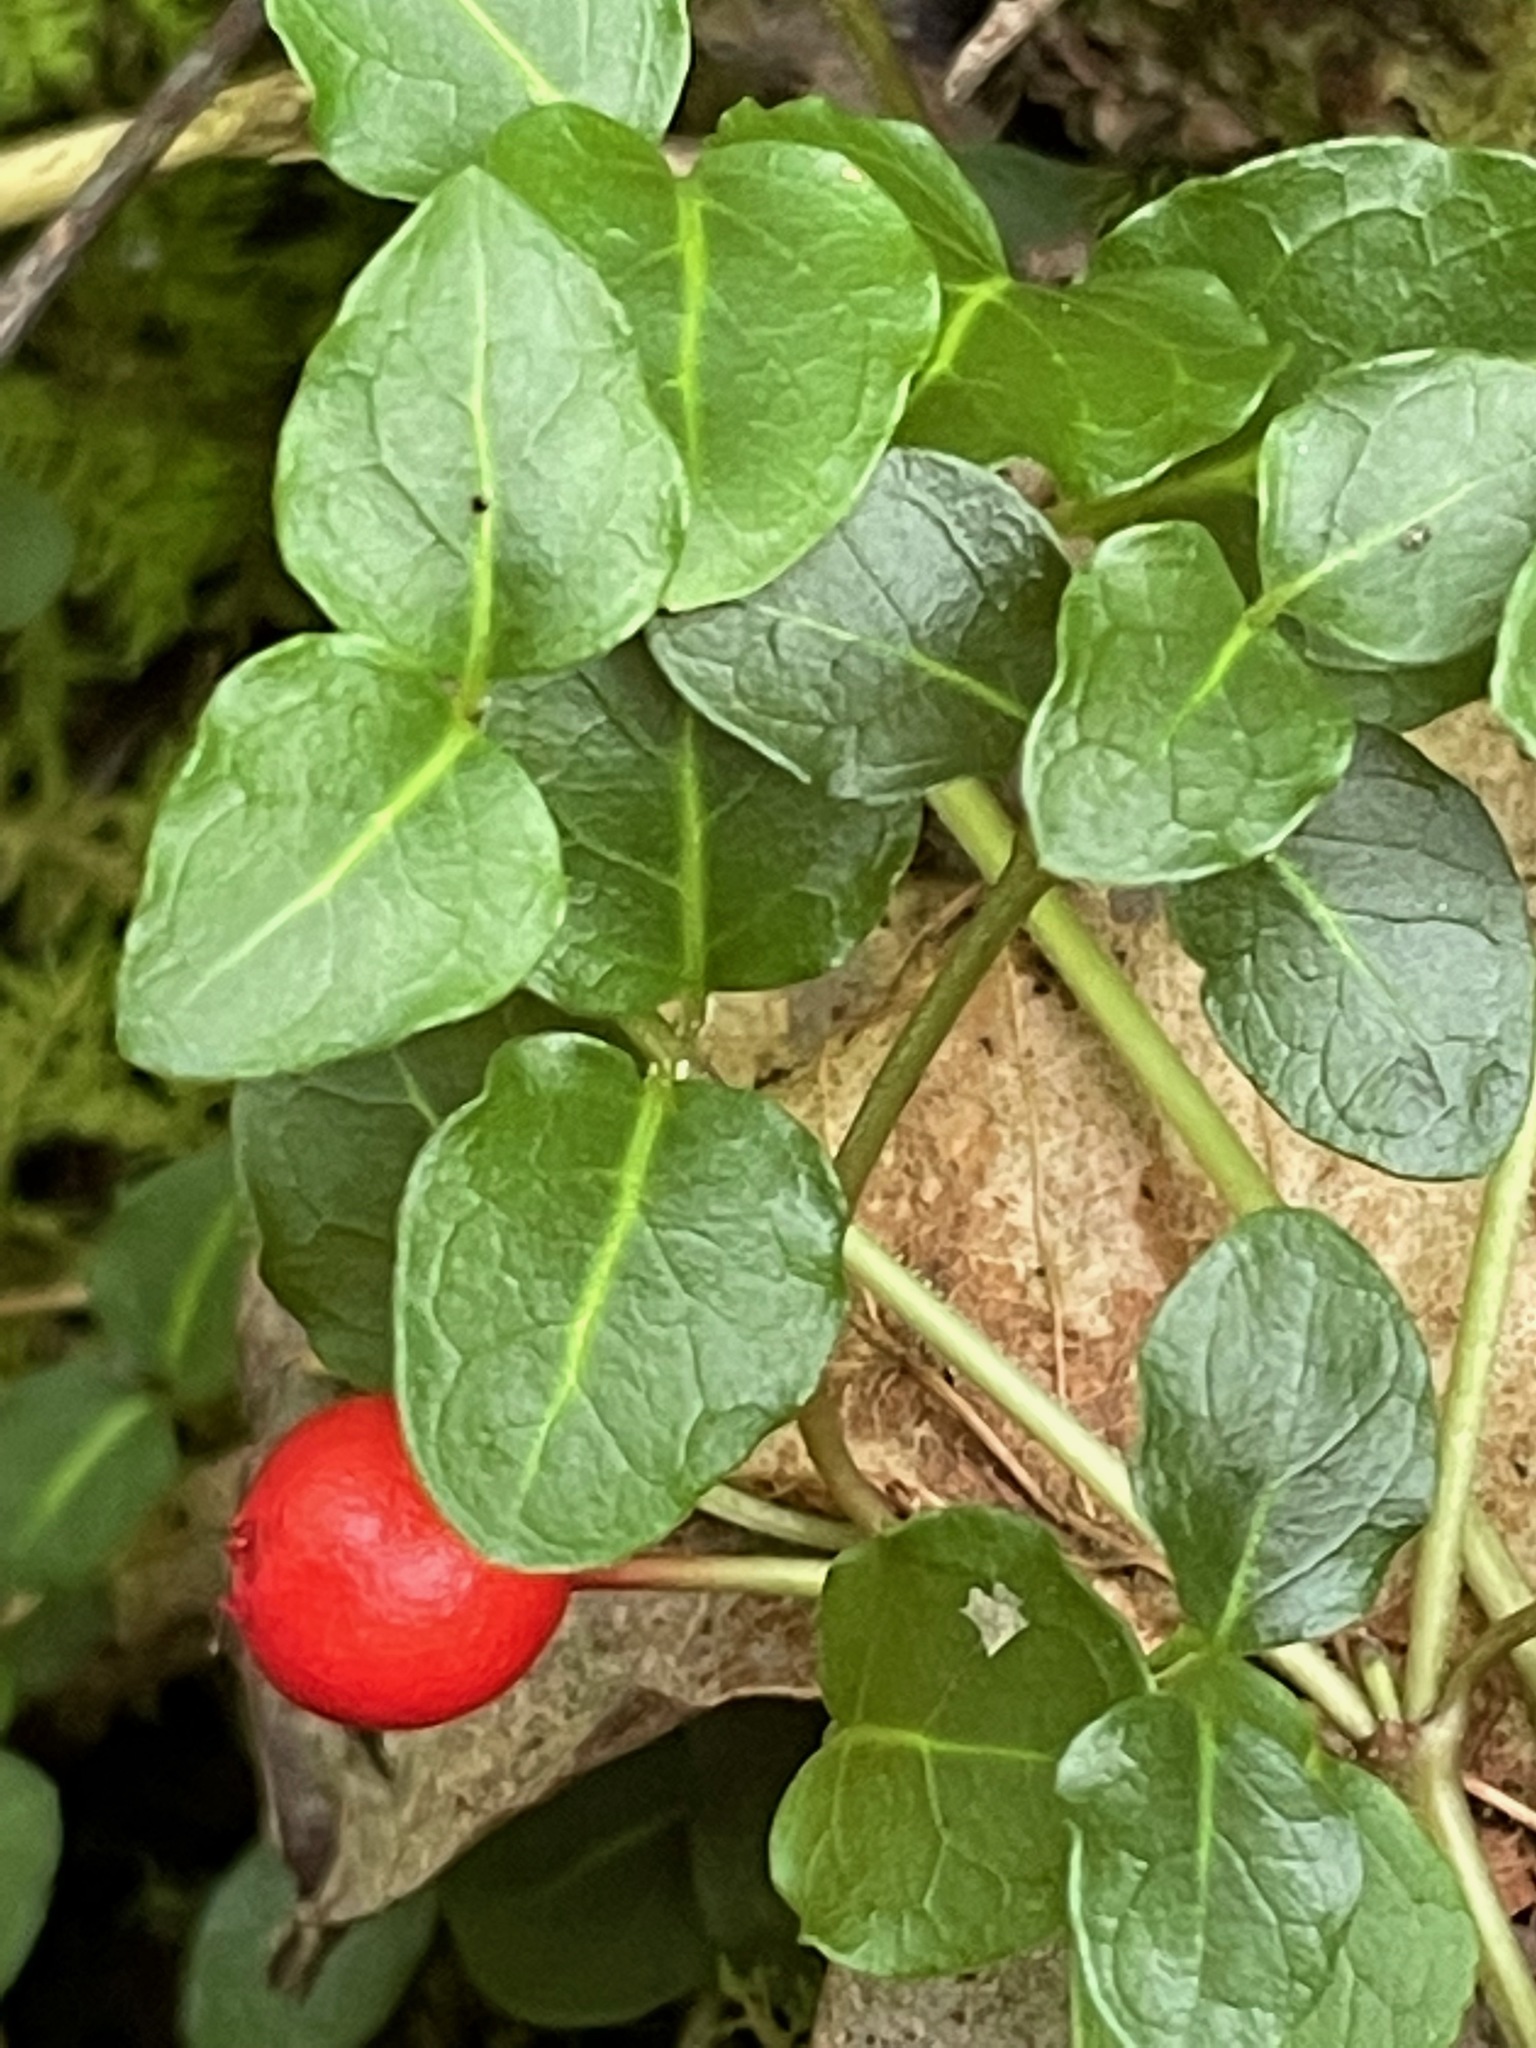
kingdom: Plantae
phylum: Tracheophyta
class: Magnoliopsida
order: Gentianales
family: Rubiaceae
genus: Mitchella
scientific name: Mitchella repens
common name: Partridge-berry
